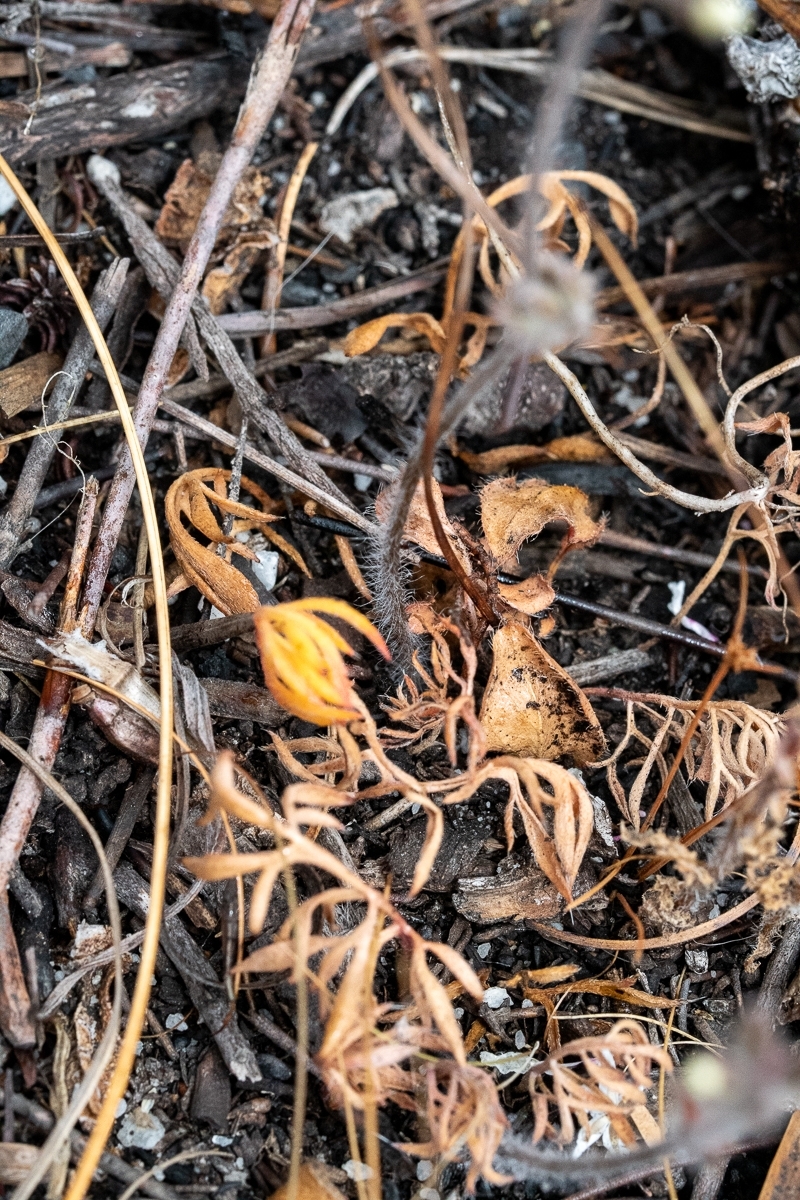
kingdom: Plantae
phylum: Tracheophyta
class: Magnoliopsida
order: Geraniales
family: Geraniaceae
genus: Pelargonium
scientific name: Pelargonium psammophilum
